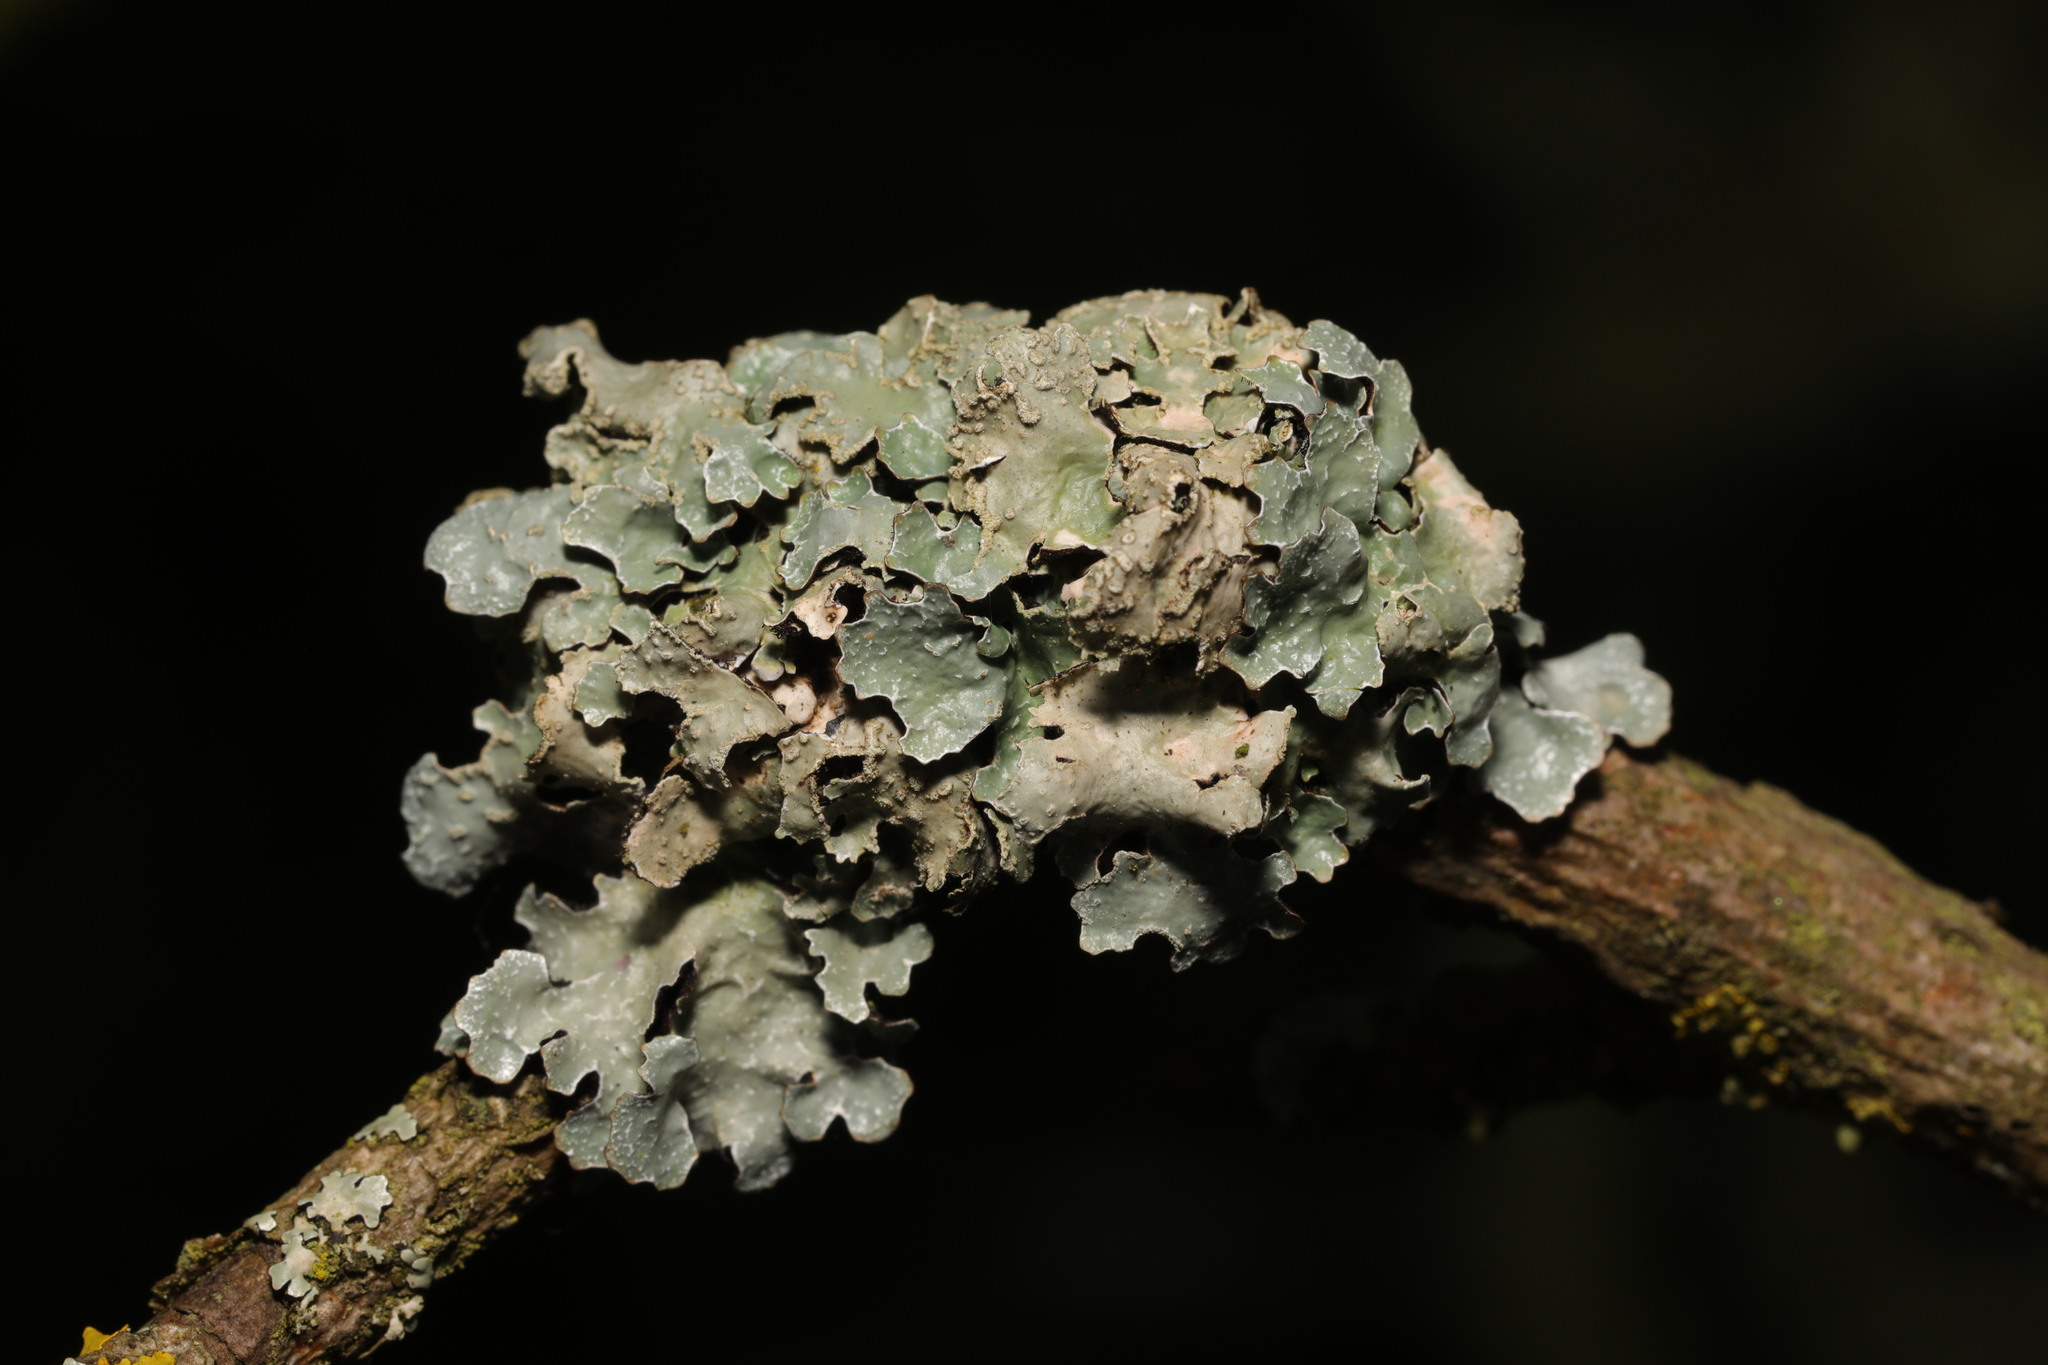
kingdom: Fungi
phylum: Ascomycota
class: Lecanoromycetes
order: Lecanorales
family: Parmeliaceae
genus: Parmelia
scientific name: Parmelia sulcata
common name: Netted shield lichen
